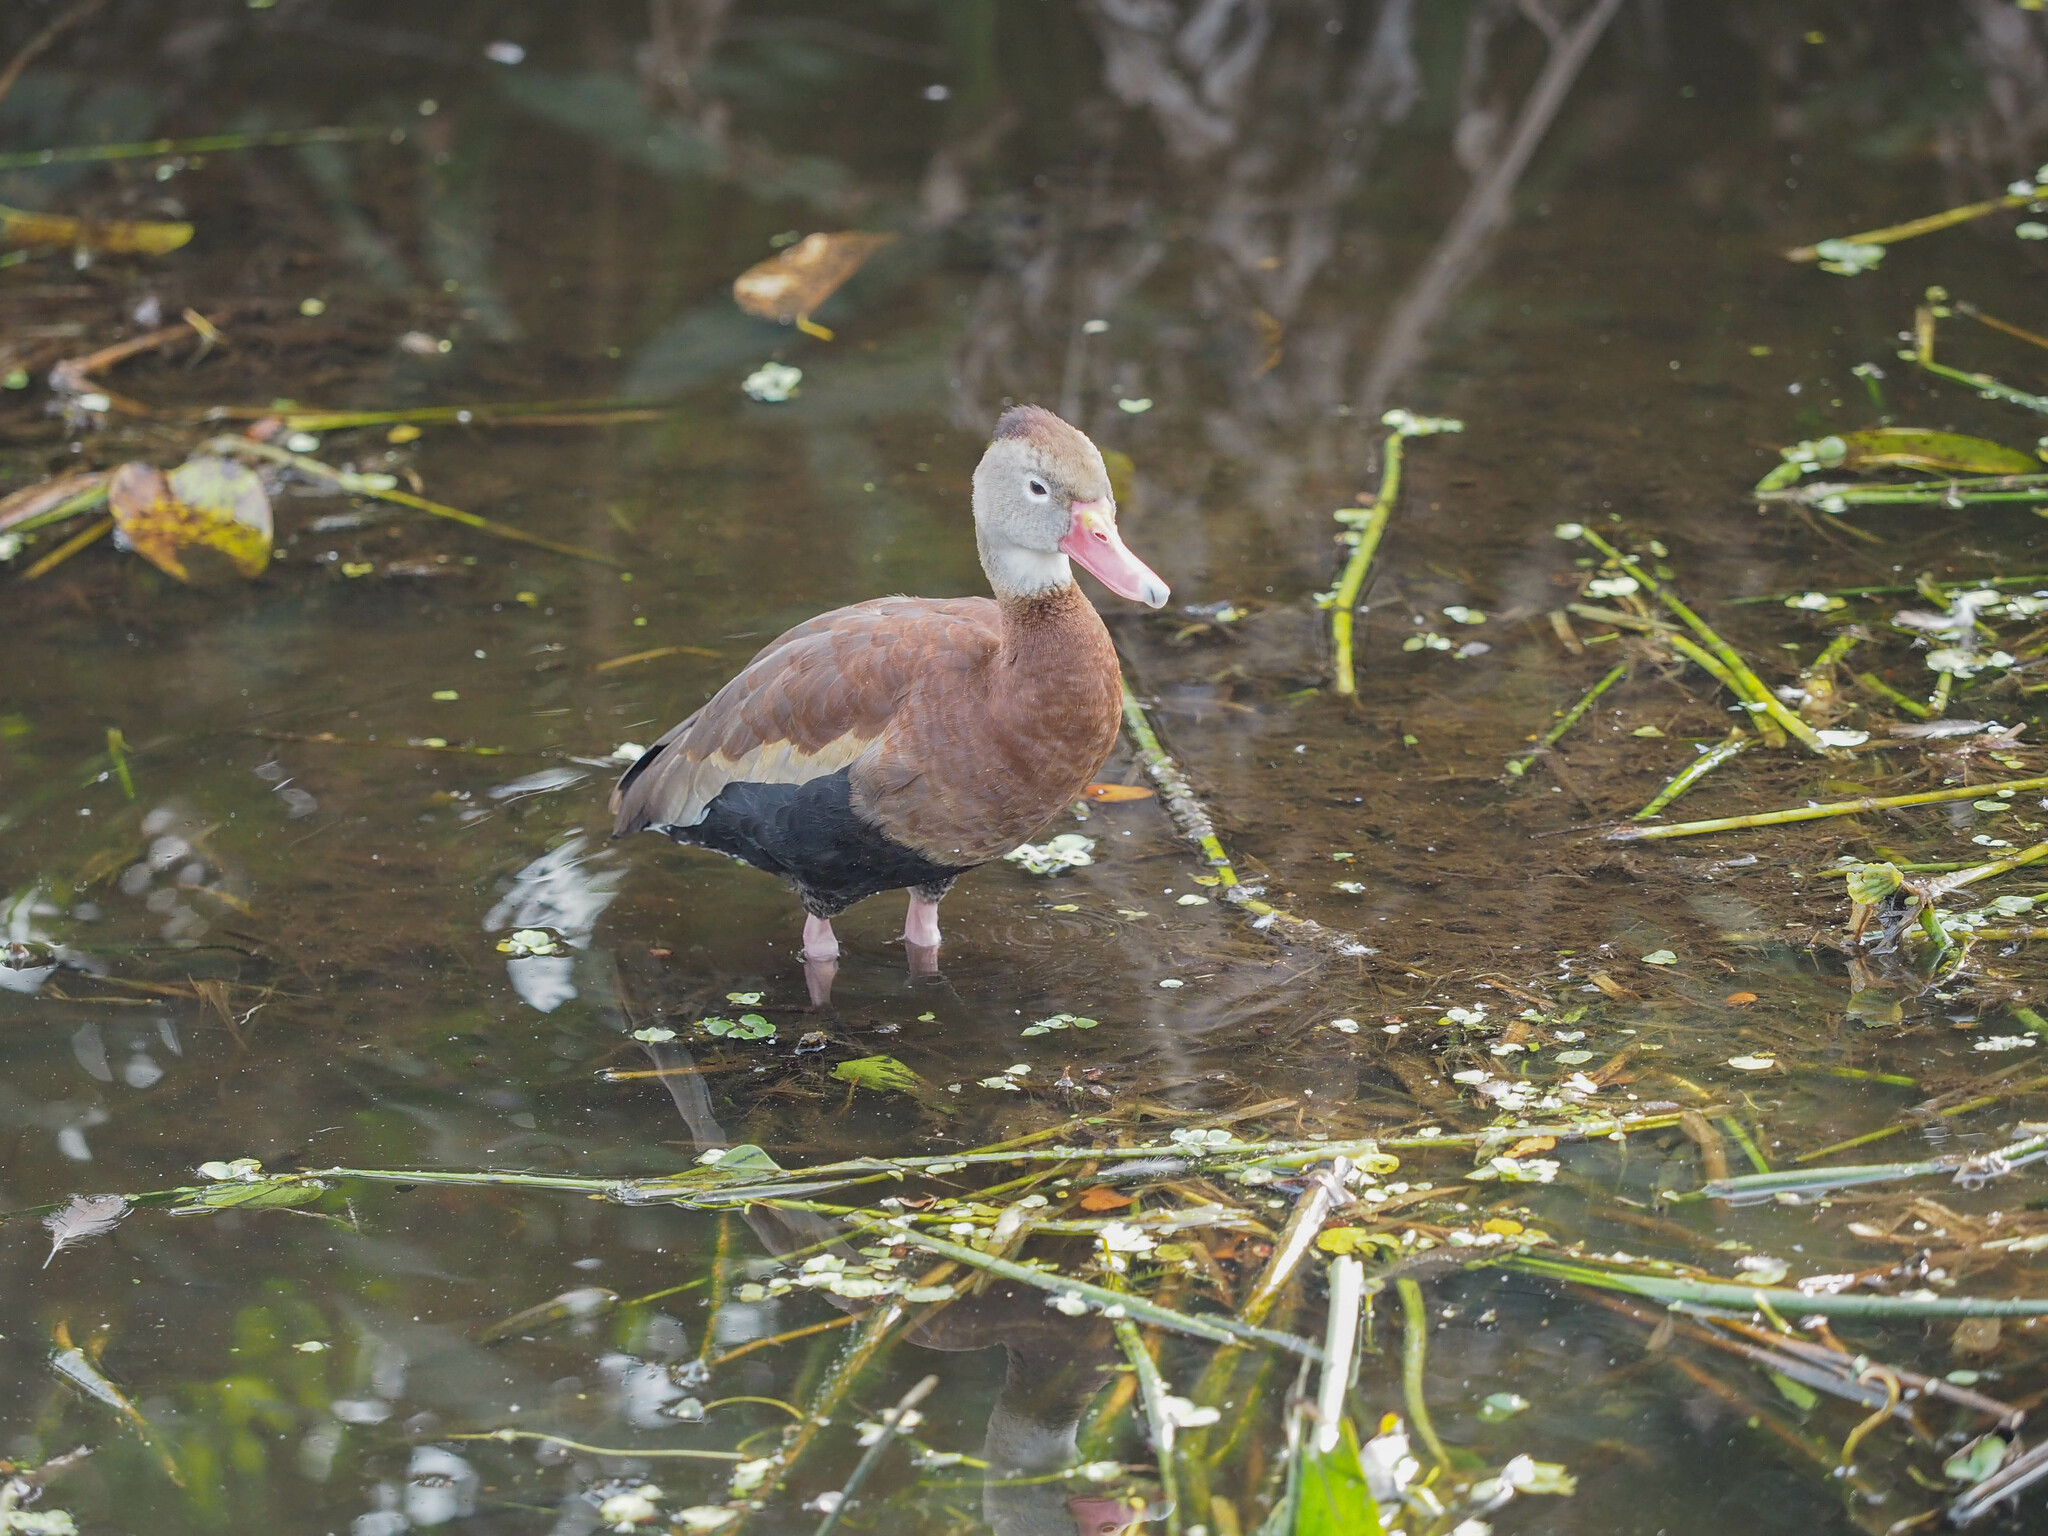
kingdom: Animalia
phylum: Chordata
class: Aves
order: Anseriformes
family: Anatidae
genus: Dendrocygna
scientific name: Dendrocygna autumnalis
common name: Black-bellied whistling duck
